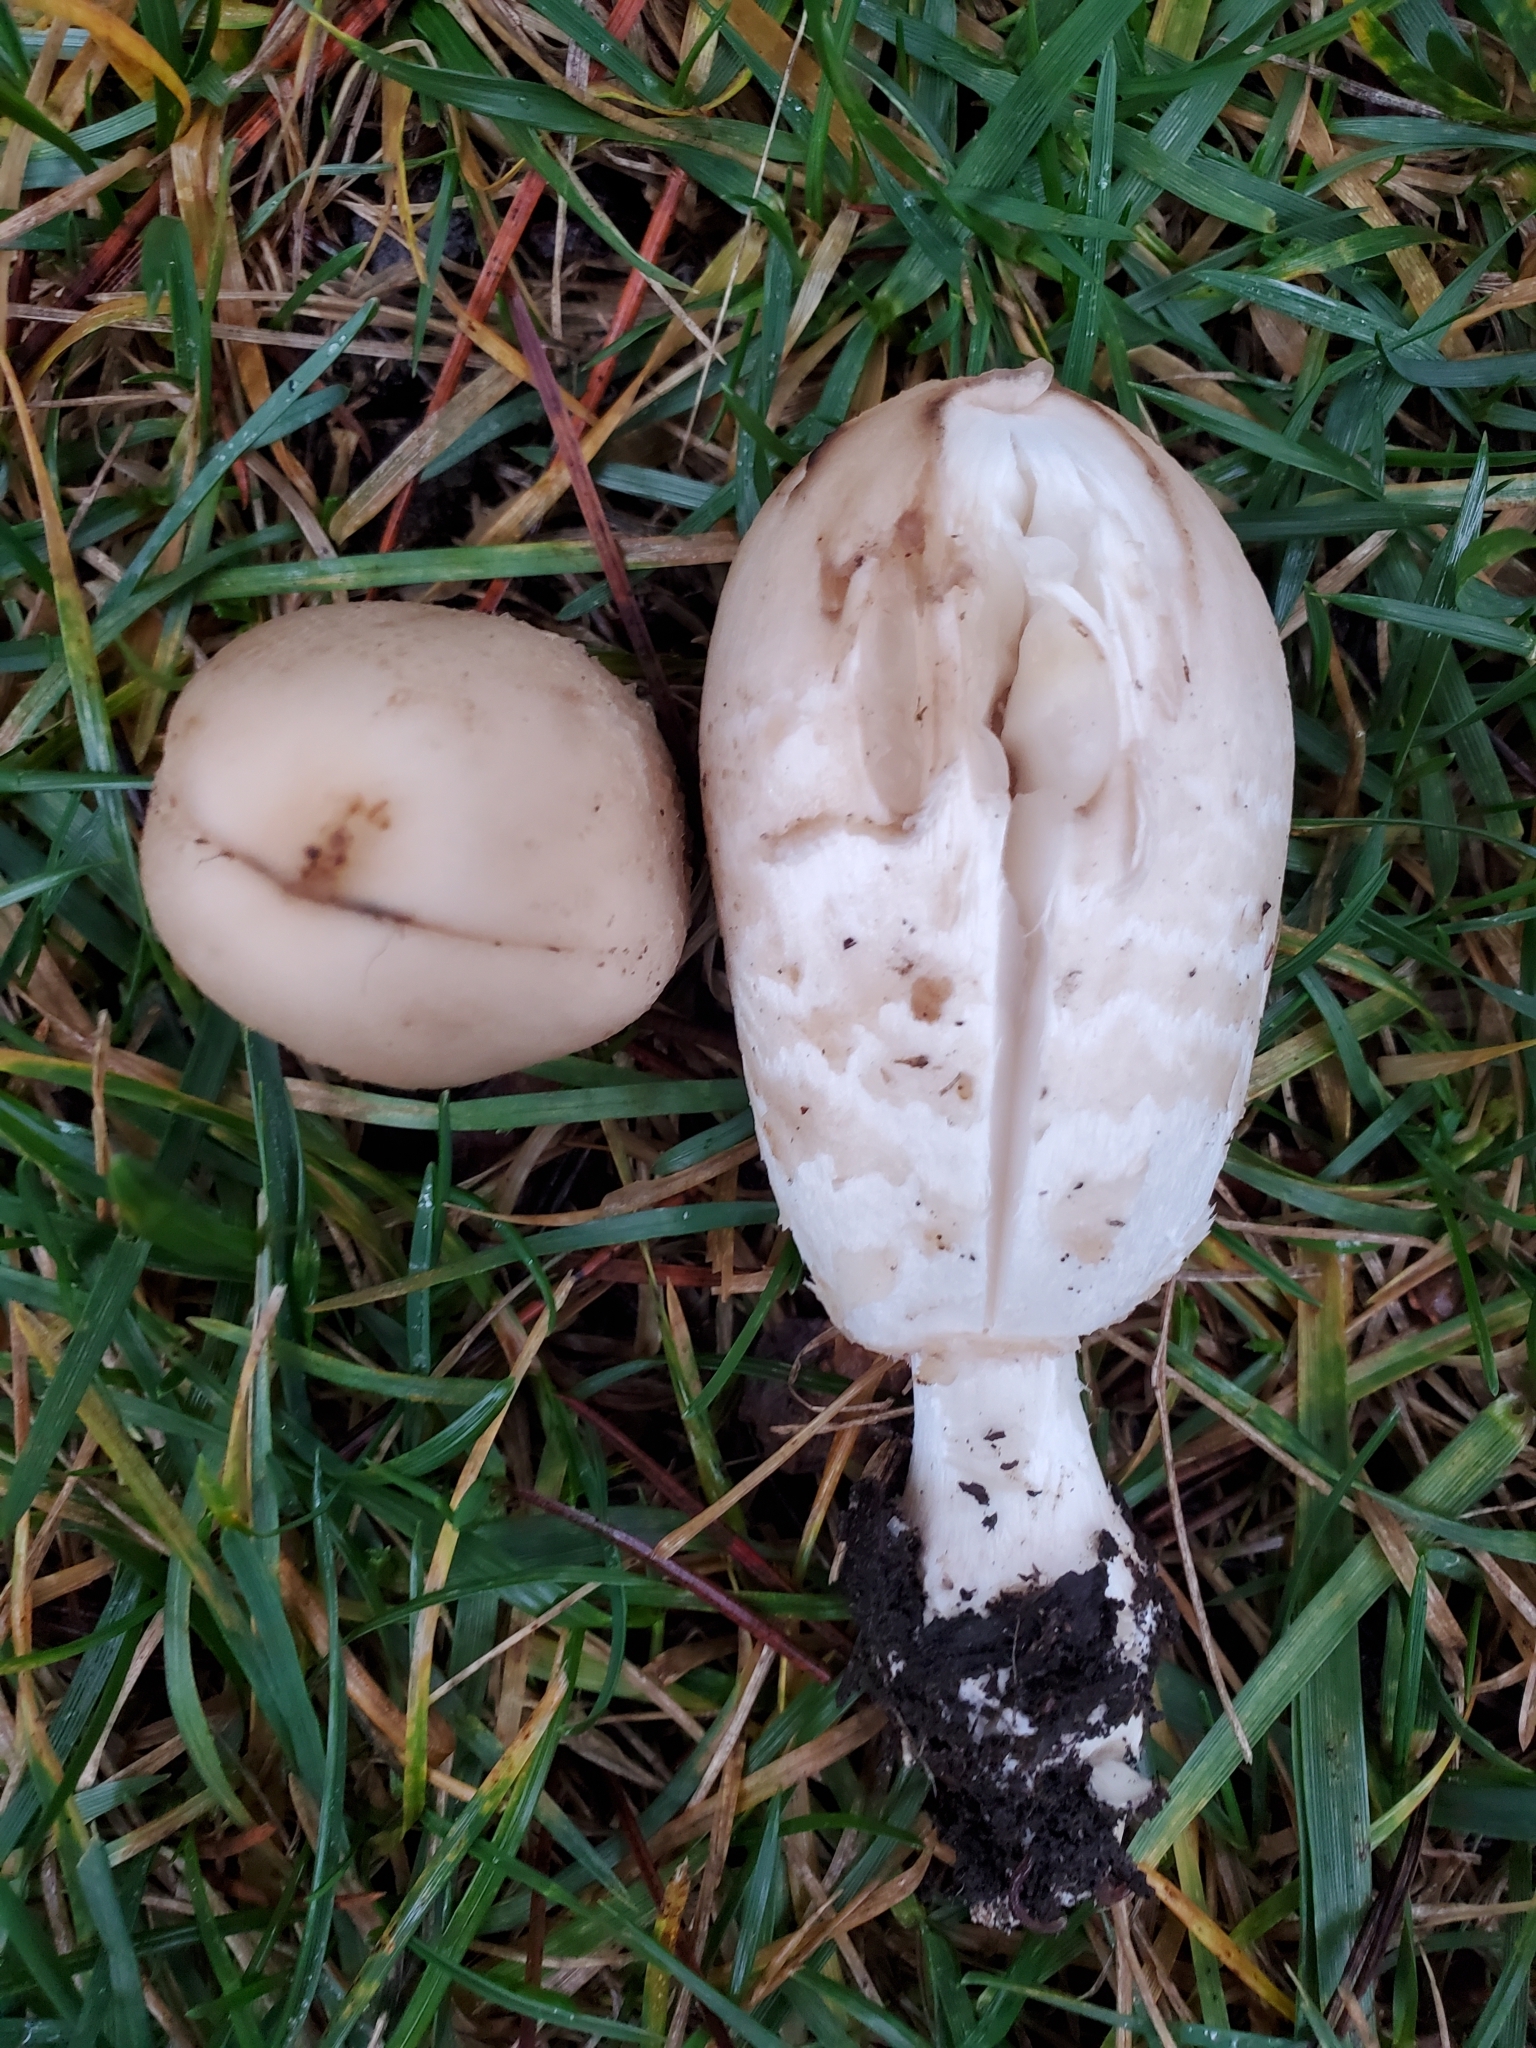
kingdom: Fungi
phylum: Basidiomycota
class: Agaricomycetes
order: Agaricales
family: Agaricaceae
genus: Coprinus
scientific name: Coprinus comatus
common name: Lawyer's wig
